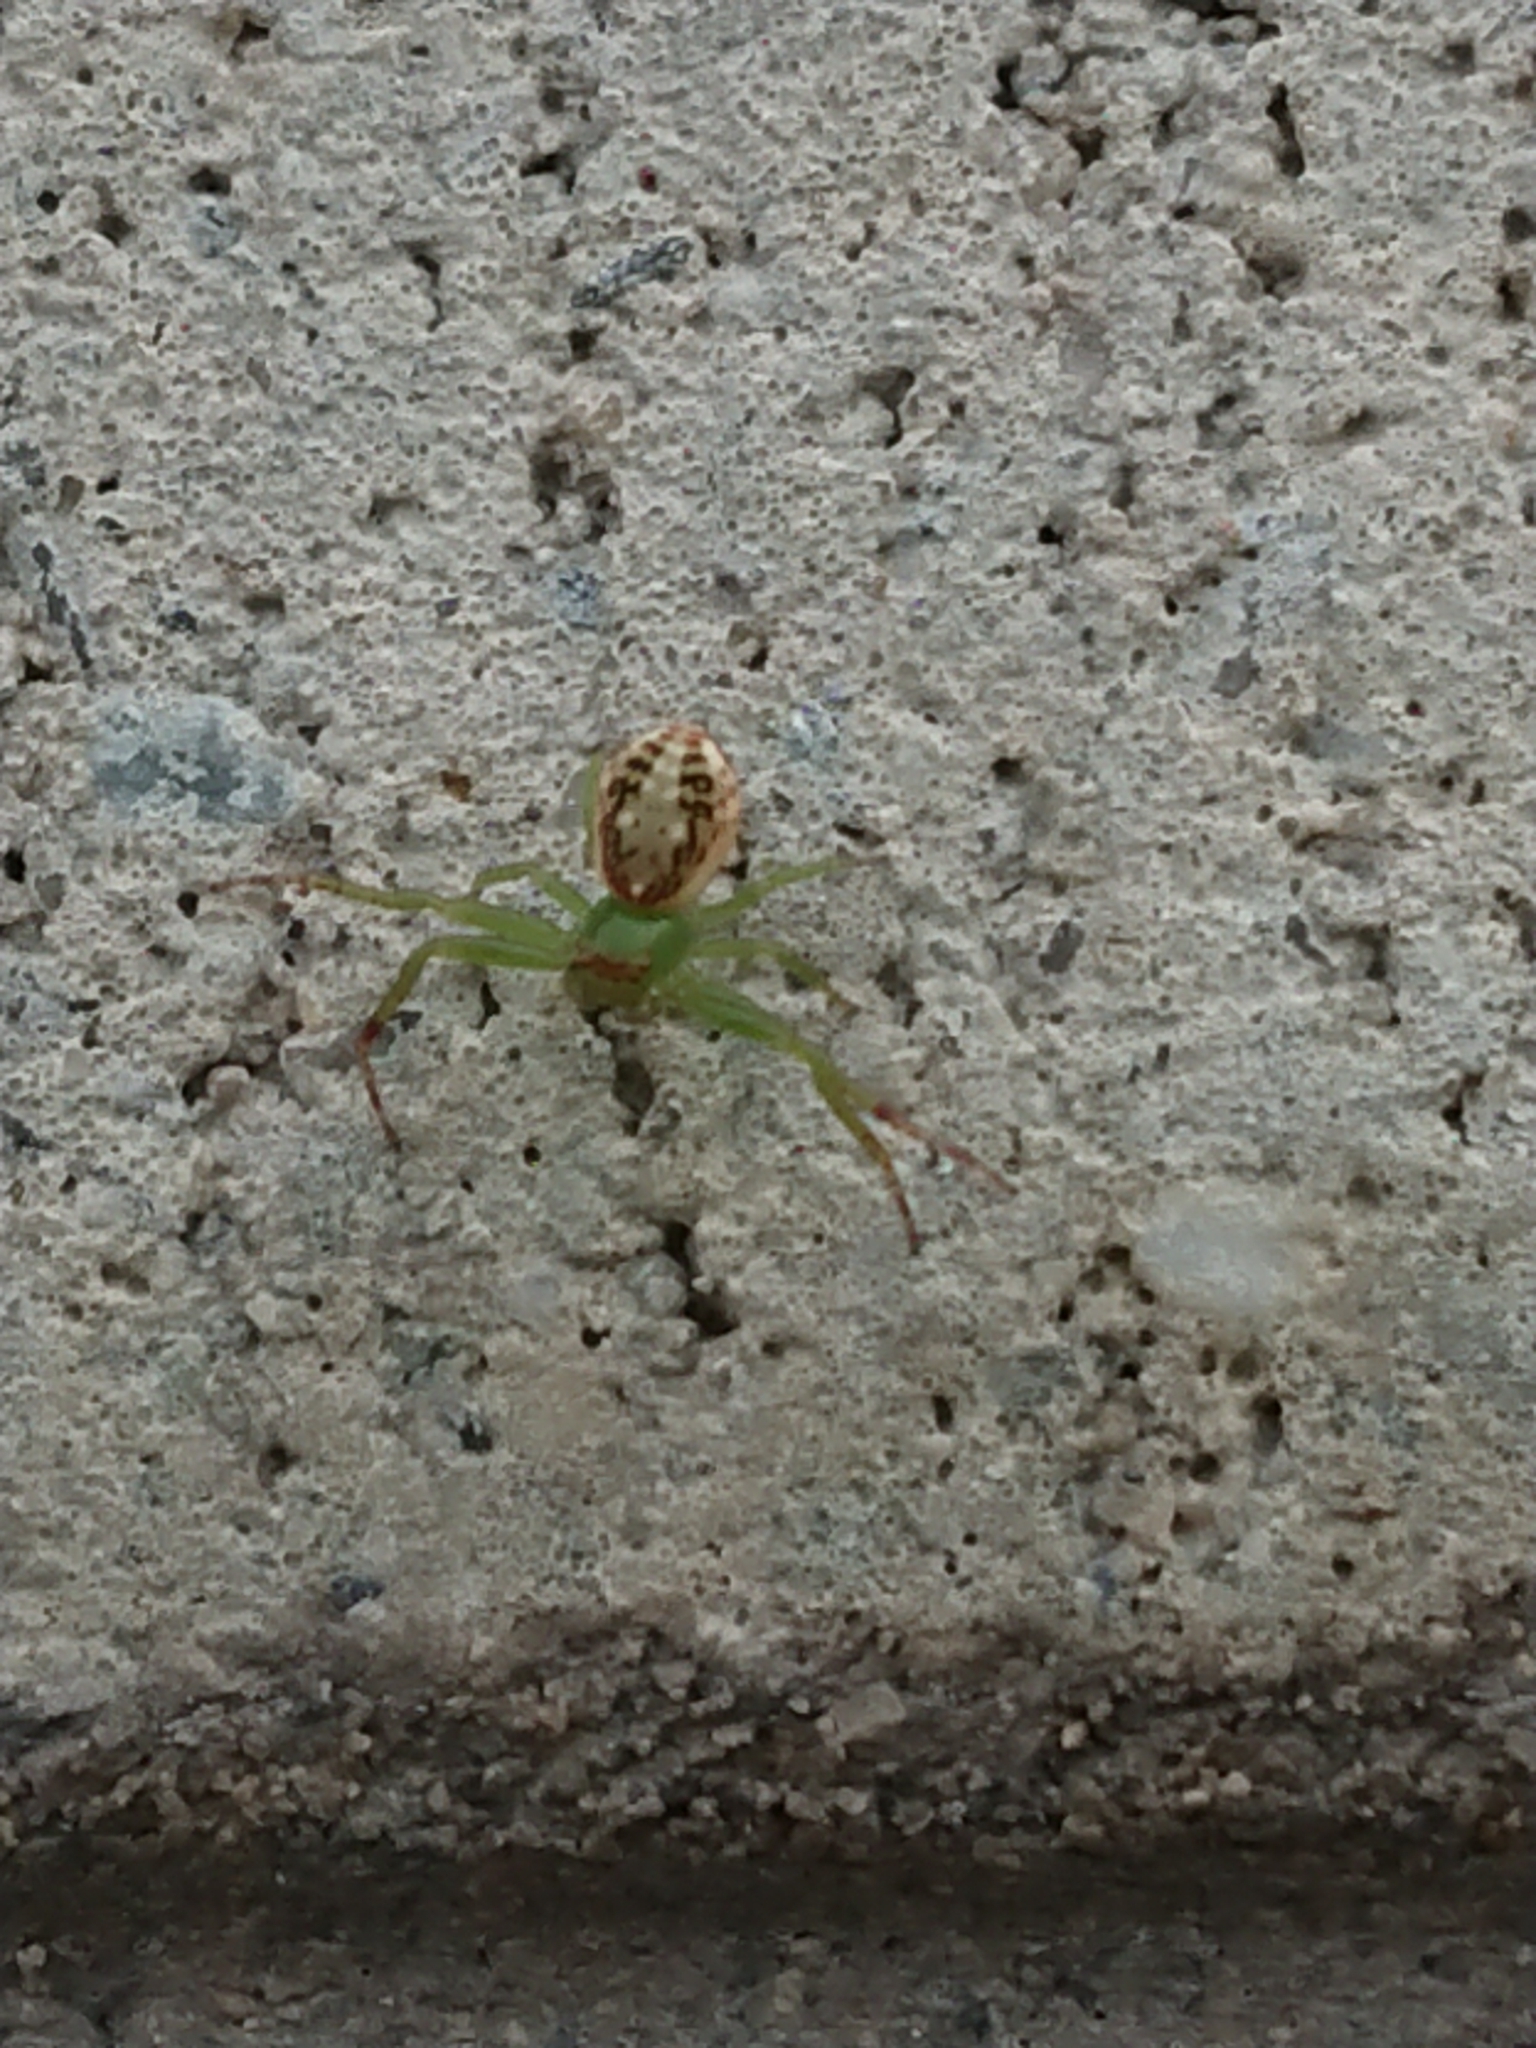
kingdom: Animalia
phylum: Arthropoda
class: Arachnida
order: Araneae
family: Thomisidae
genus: Diaea
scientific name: Diaea ambara
